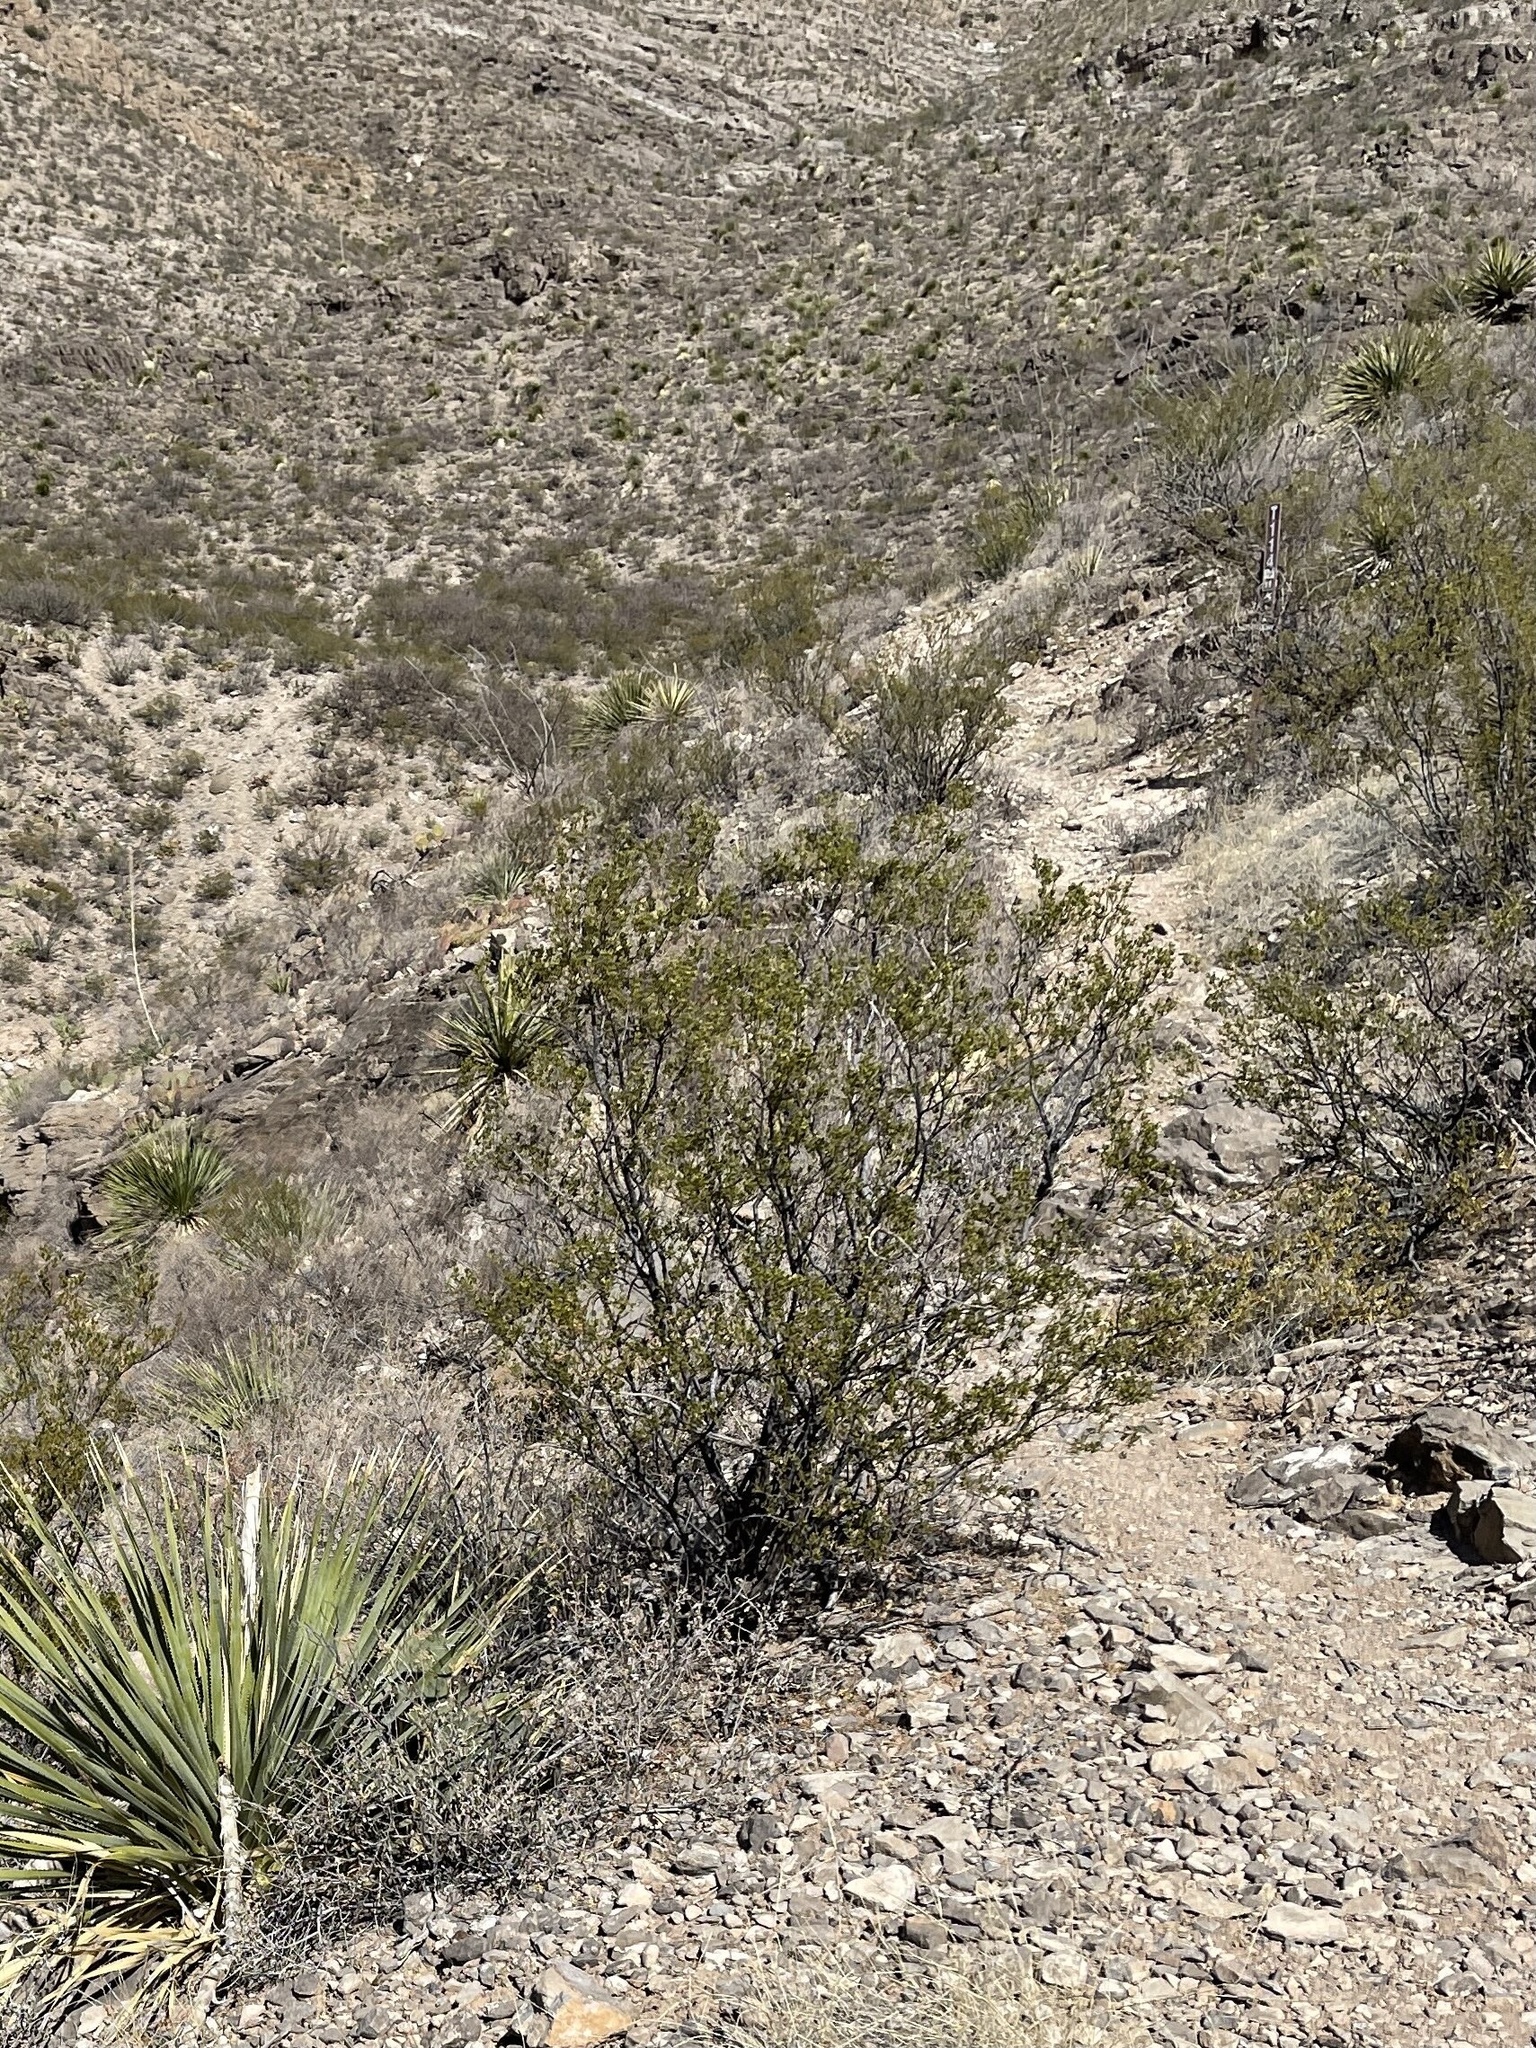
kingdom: Plantae
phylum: Tracheophyta
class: Magnoliopsida
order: Zygophyllales
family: Zygophyllaceae
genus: Larrea
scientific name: Larrea tridentata
